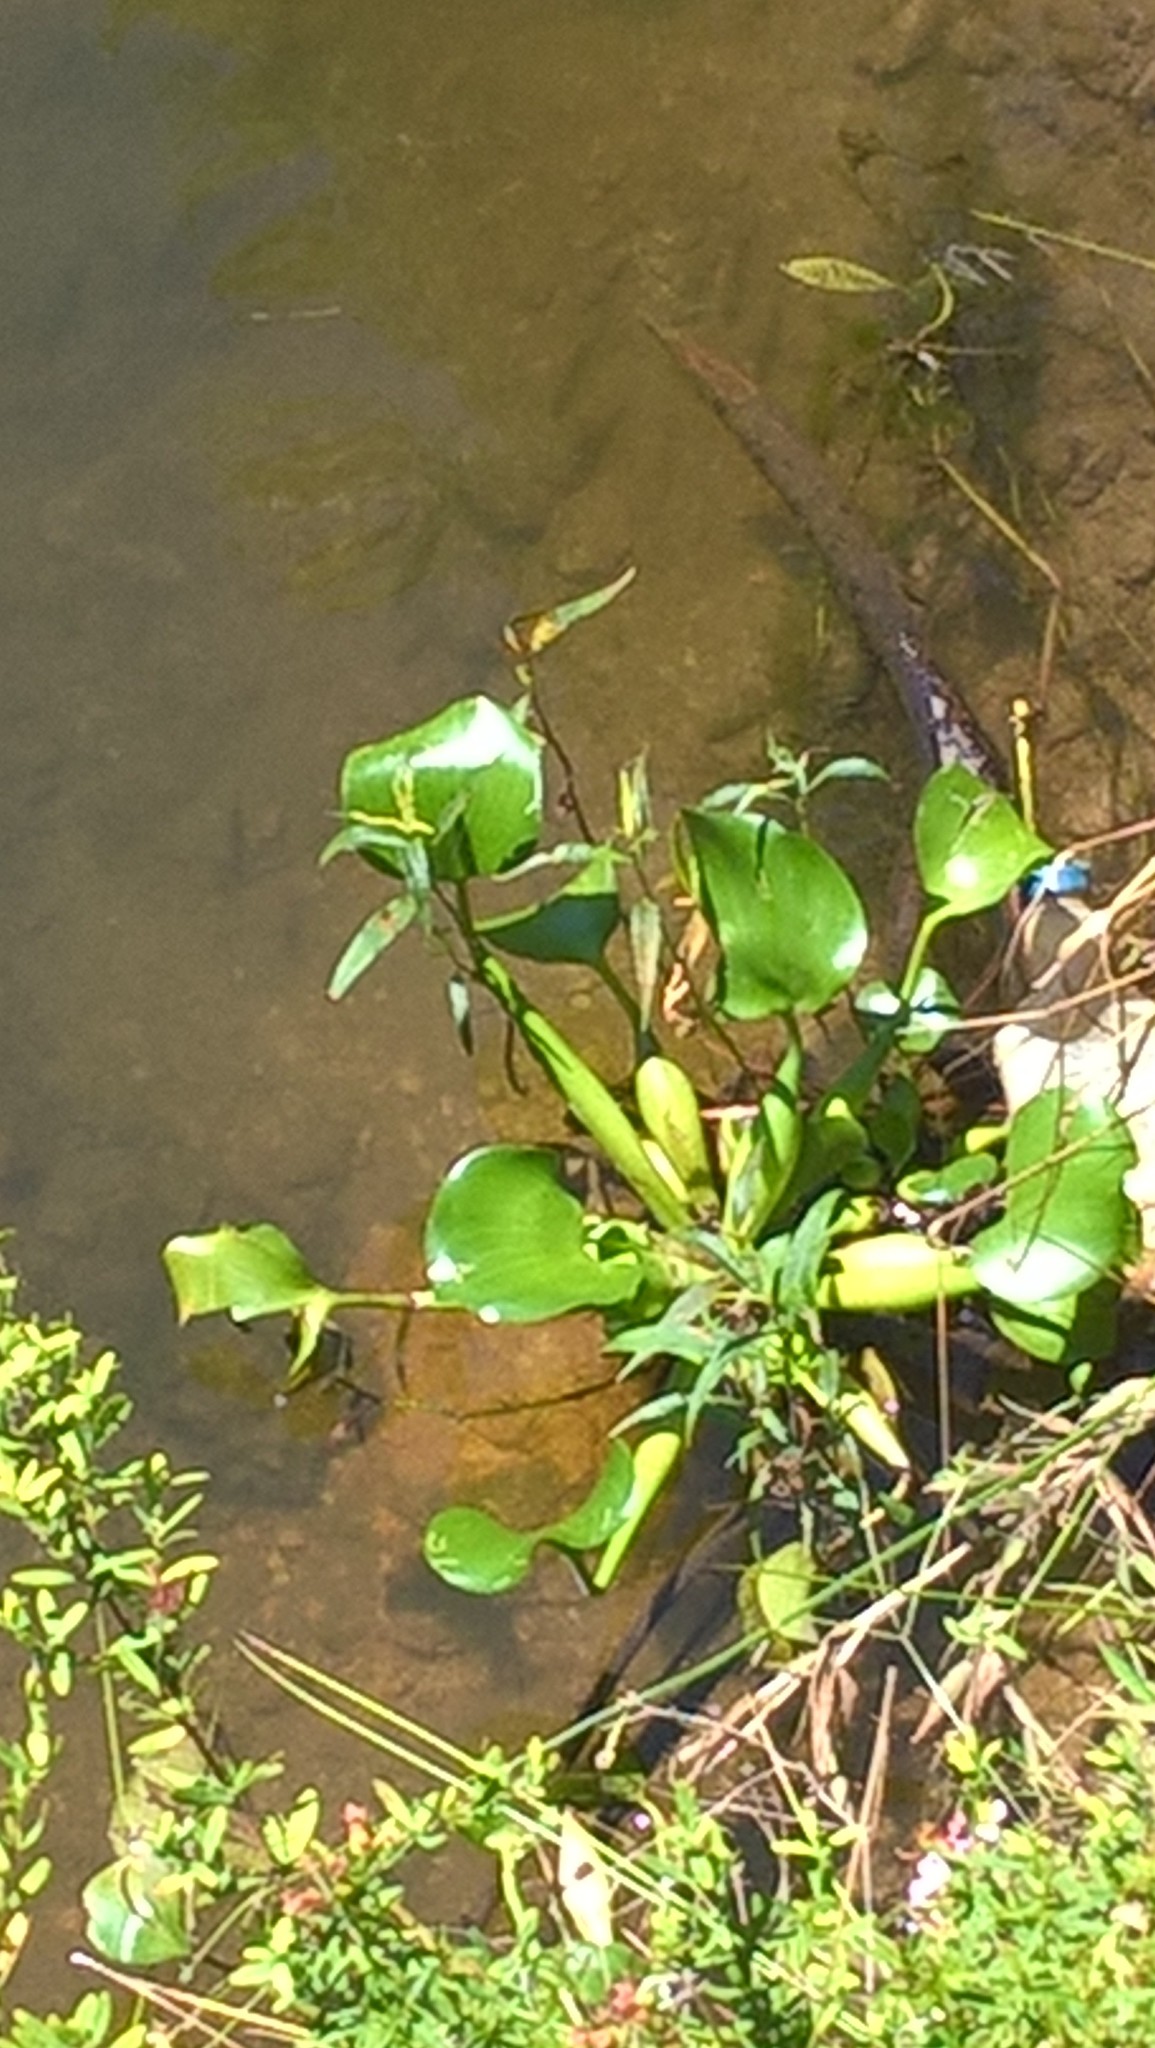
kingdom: Plantae
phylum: Tracheophyta
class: Liliopsida
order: Commelinales
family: Pontederiaceae
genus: Pontederia
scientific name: Pontederia crassipes
